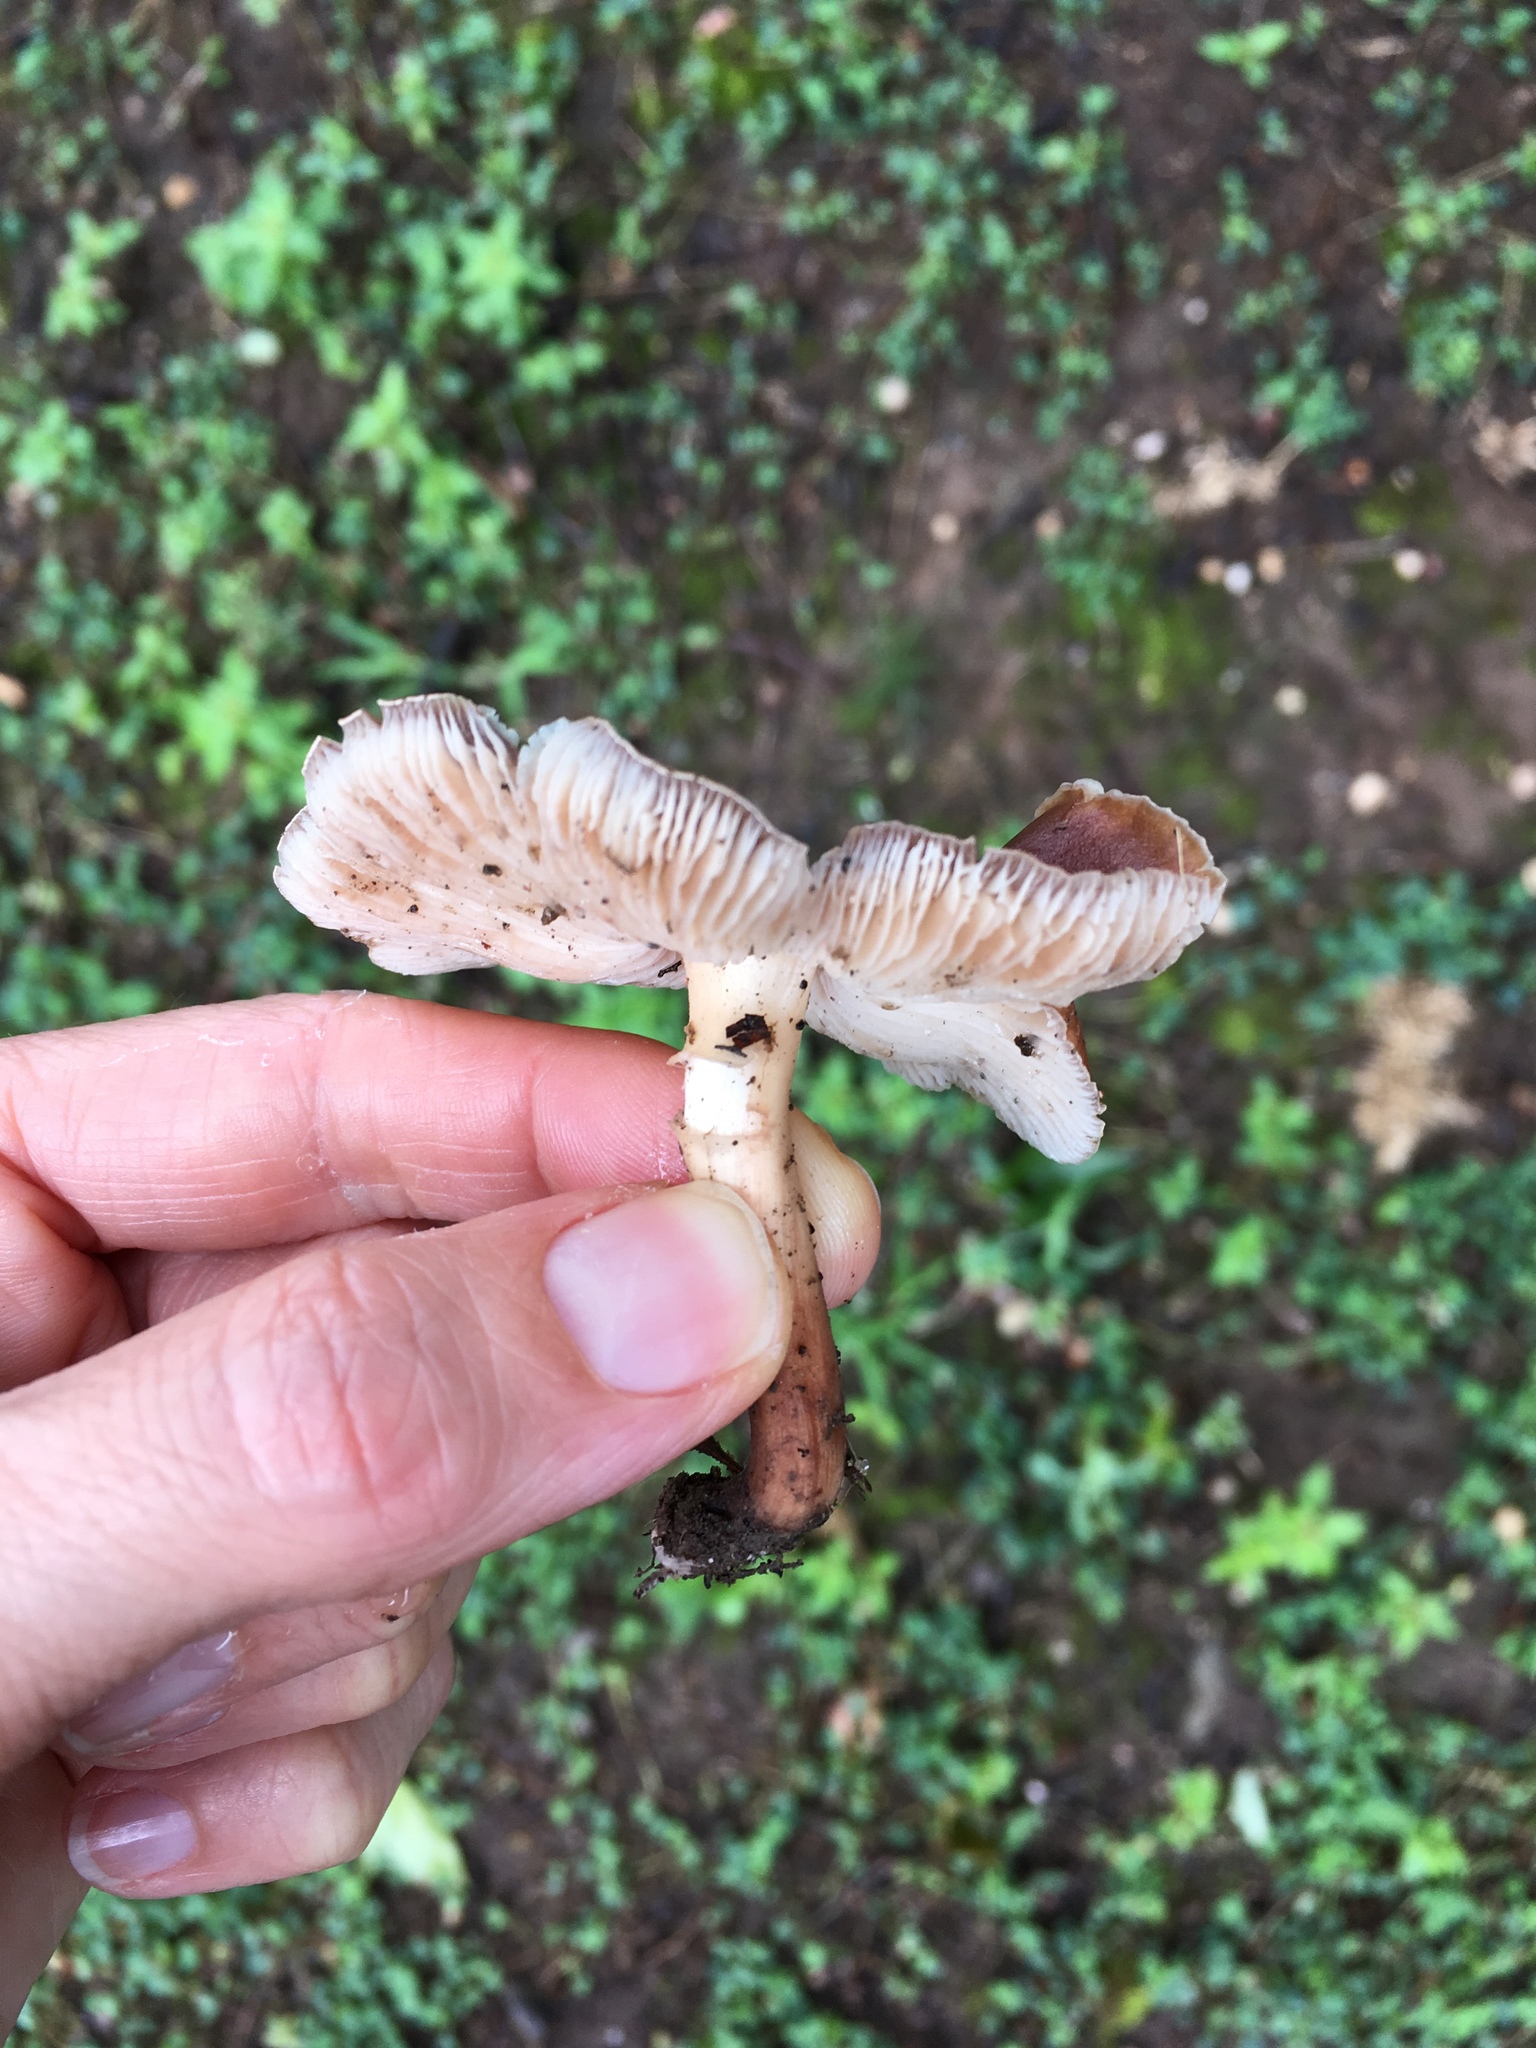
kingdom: Fungi
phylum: Basidiomycota
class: Agaricomycetes
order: Agaricales
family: Omphalotaceae
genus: Rhodocollybia
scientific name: Rhodocollybia butyracea
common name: Butter cap
